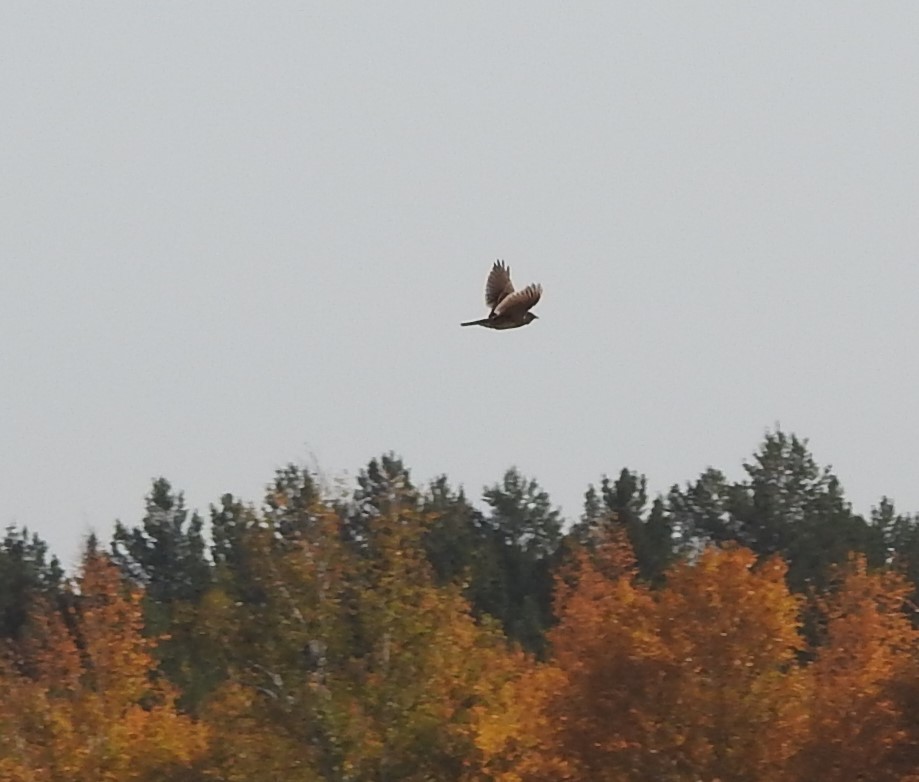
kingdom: Animalia
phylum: Chordata
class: Aves
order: Passeriformes
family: Alaudidae
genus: Alauda
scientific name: Alauda arvensis
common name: Eurasian skylark
